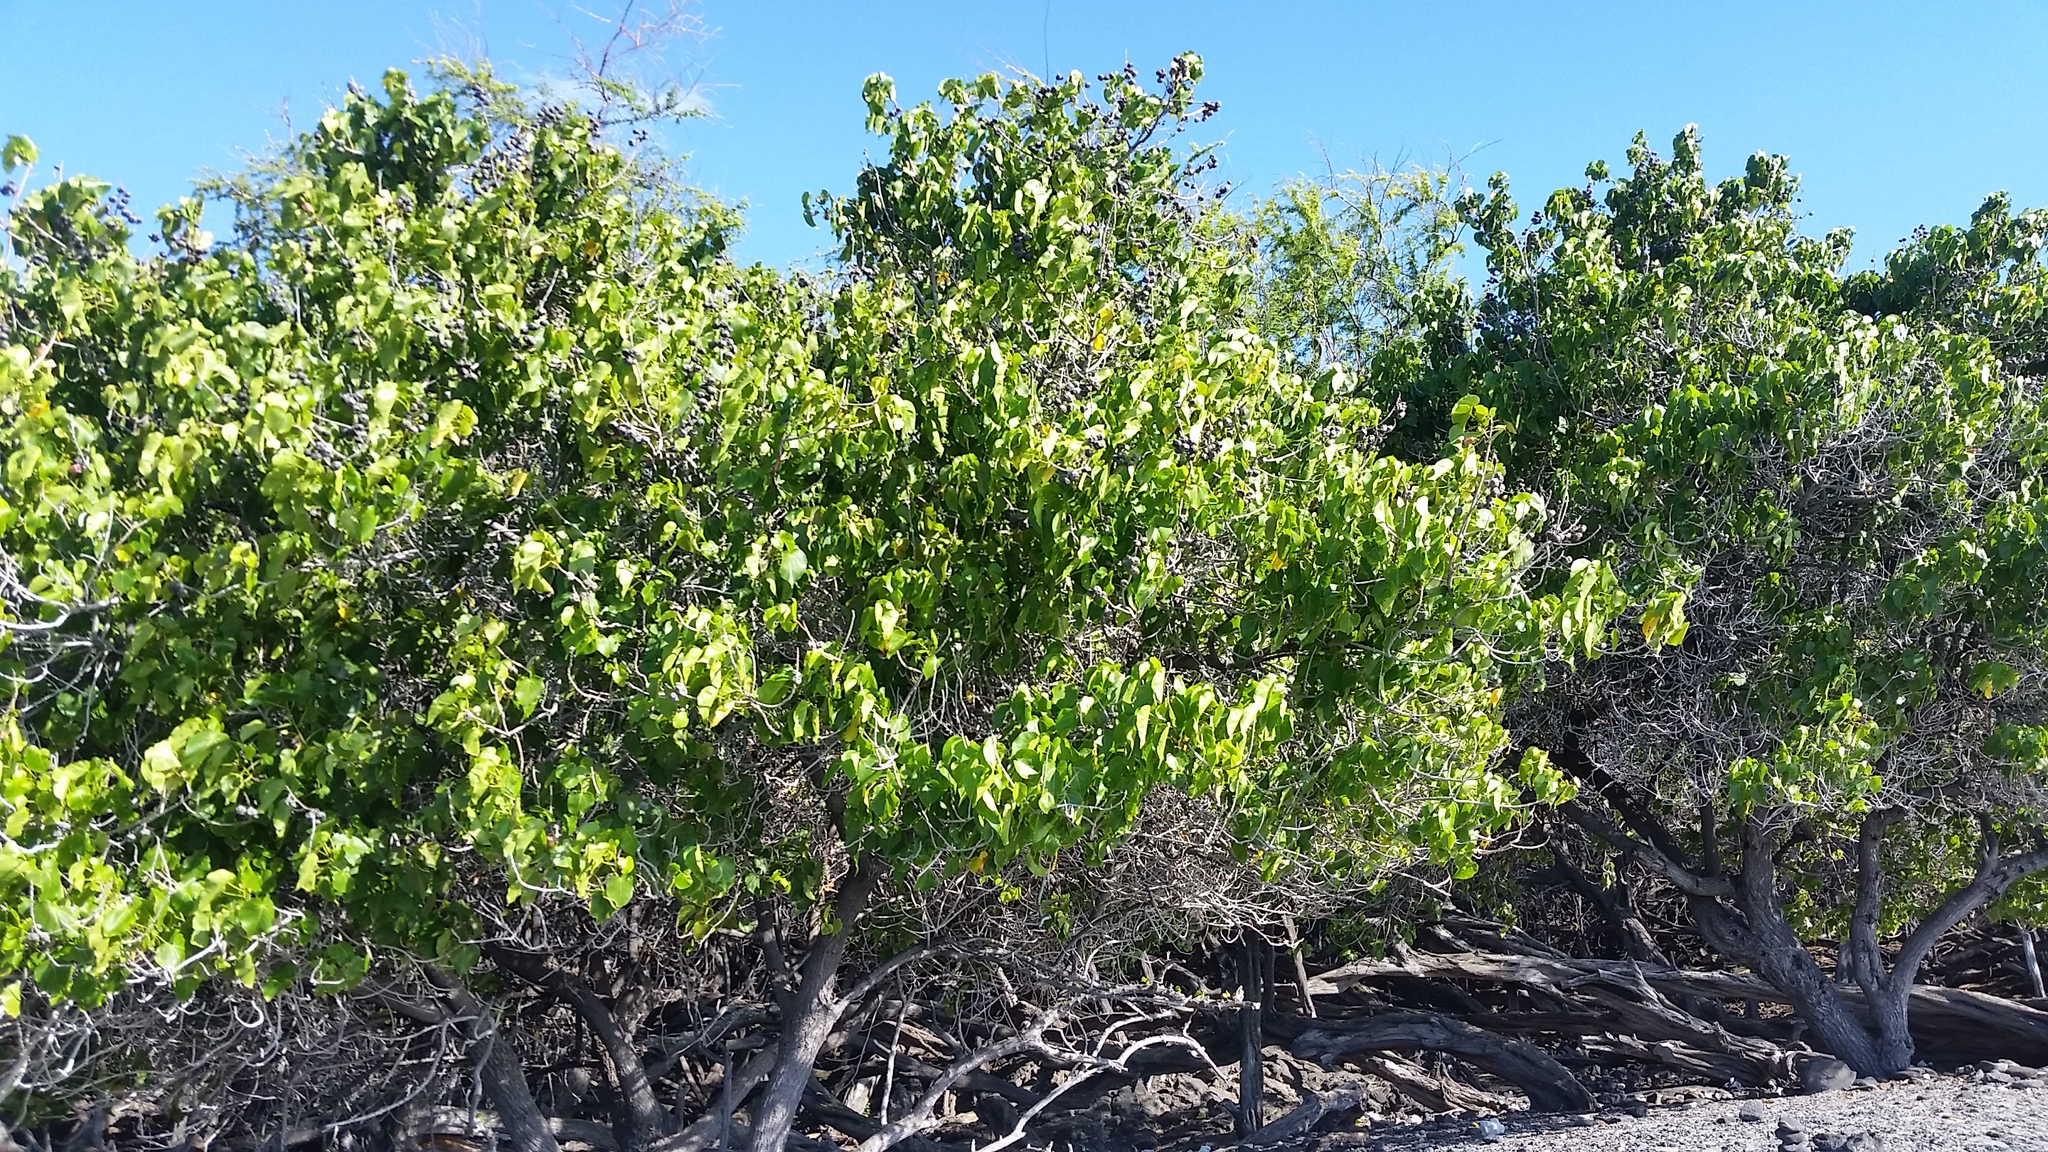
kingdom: Plantae
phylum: Tracheophyta
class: Magnoliopsida
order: Malvales
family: Malvaceae
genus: Thespesia
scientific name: Thespesia populnea
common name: Seaside mahoe
